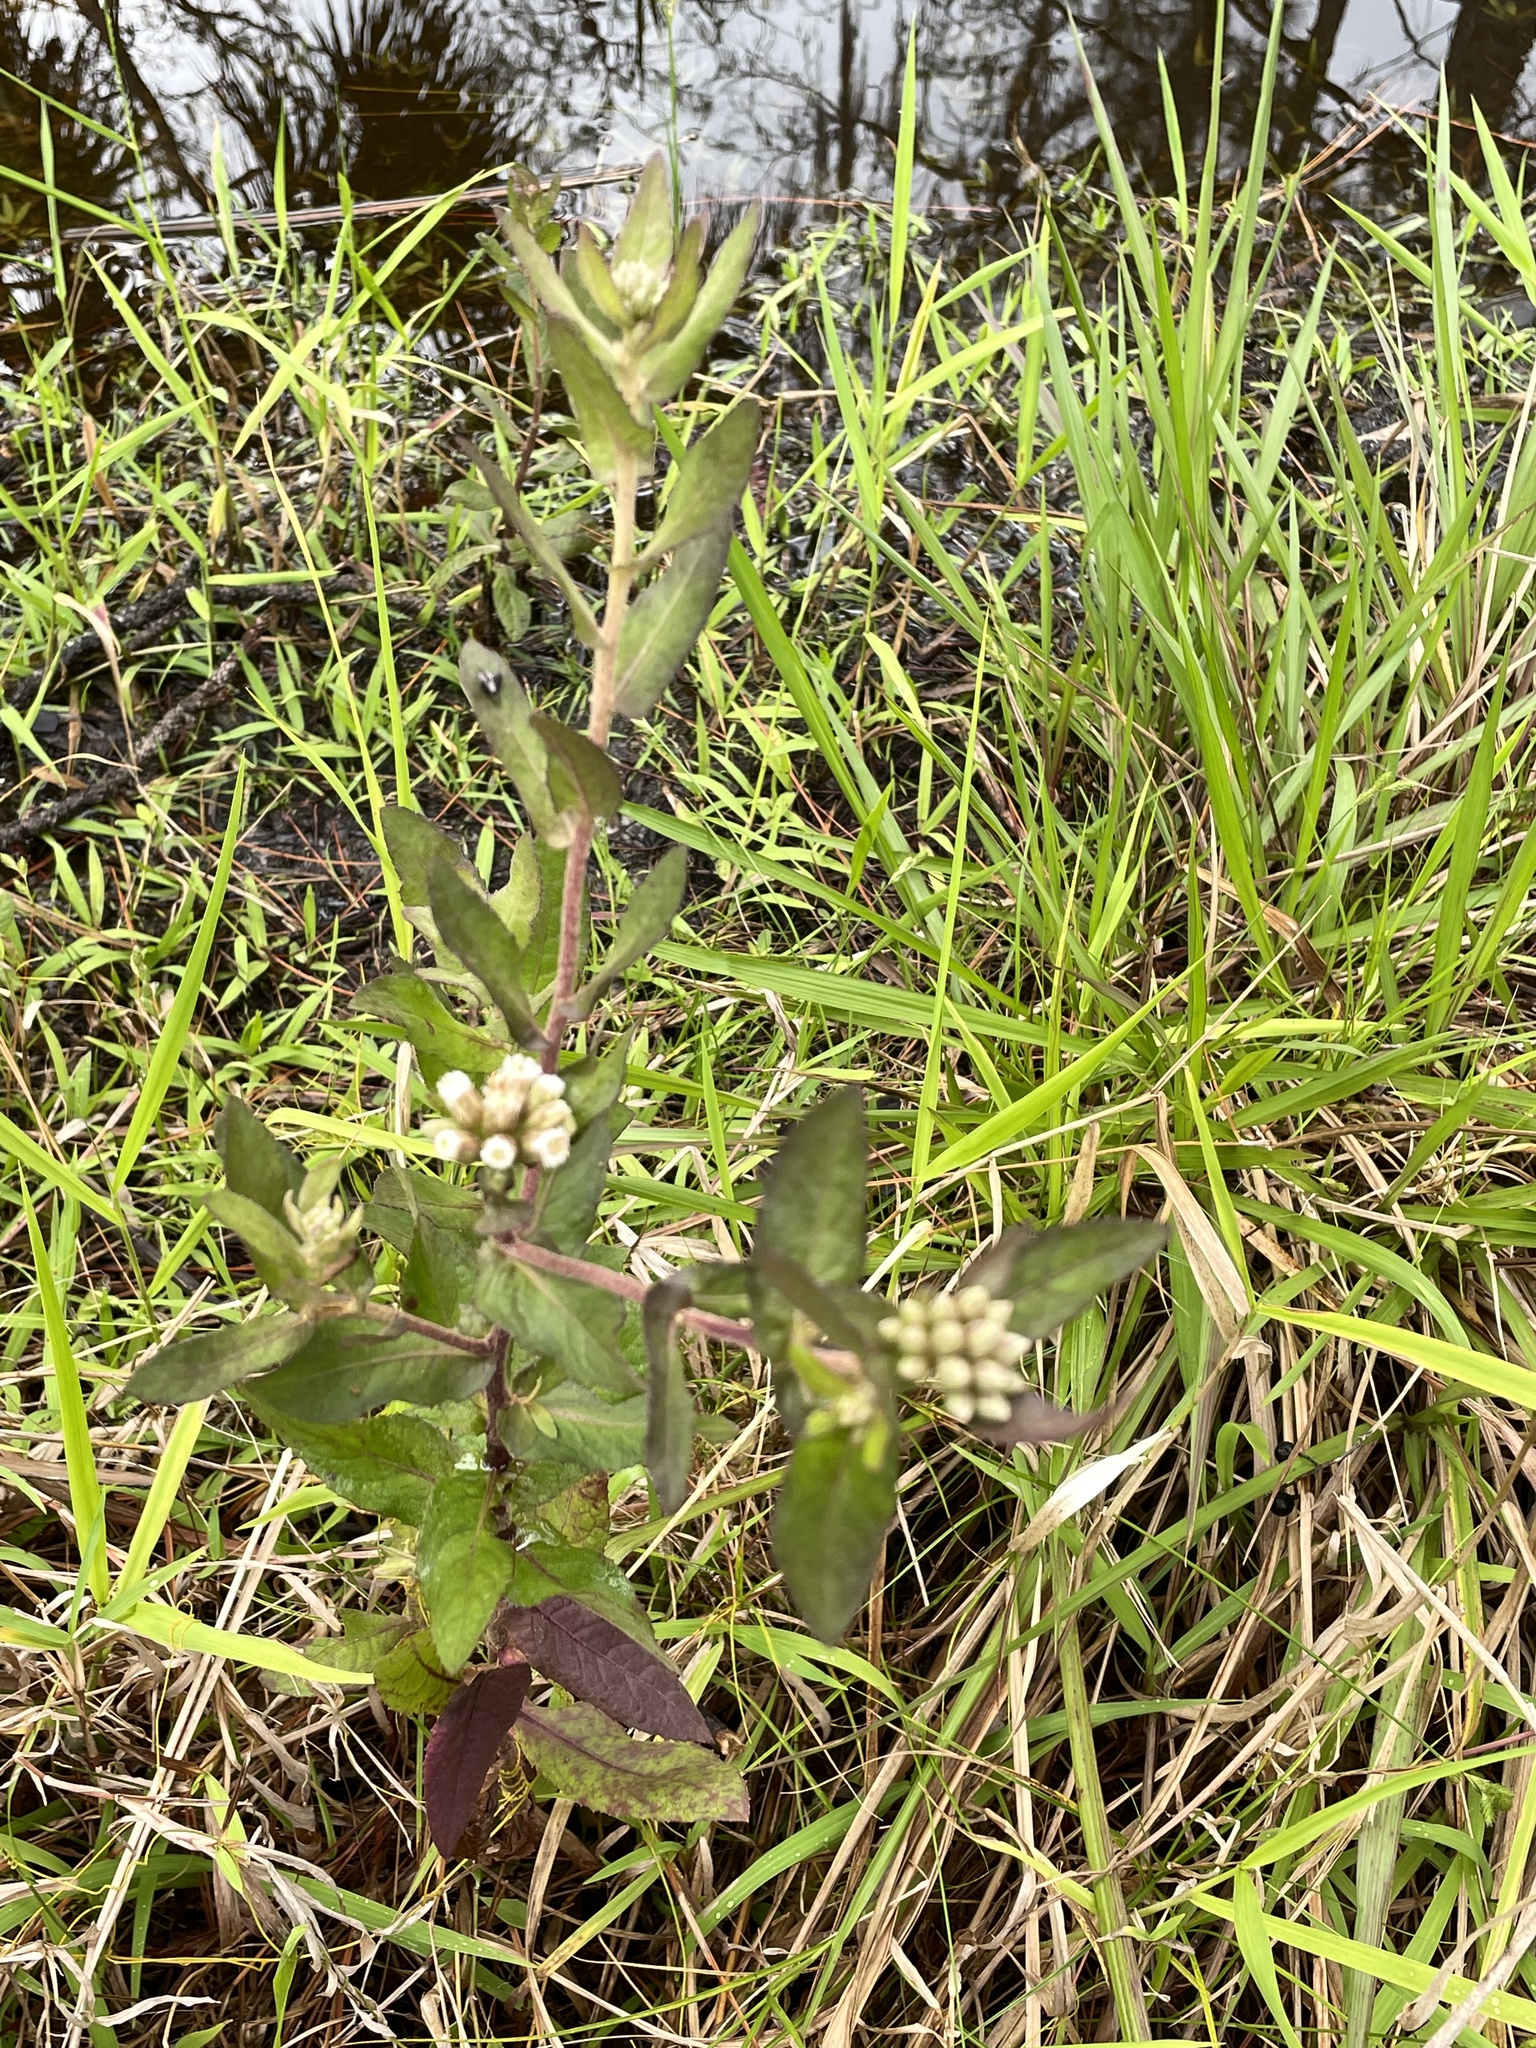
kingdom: Plantae
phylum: Tracheophyta
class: Magnoliopsida
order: Asterales
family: Asteraceae
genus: Pluchea
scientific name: Pluchea foetida
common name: Stinking camphorweed
